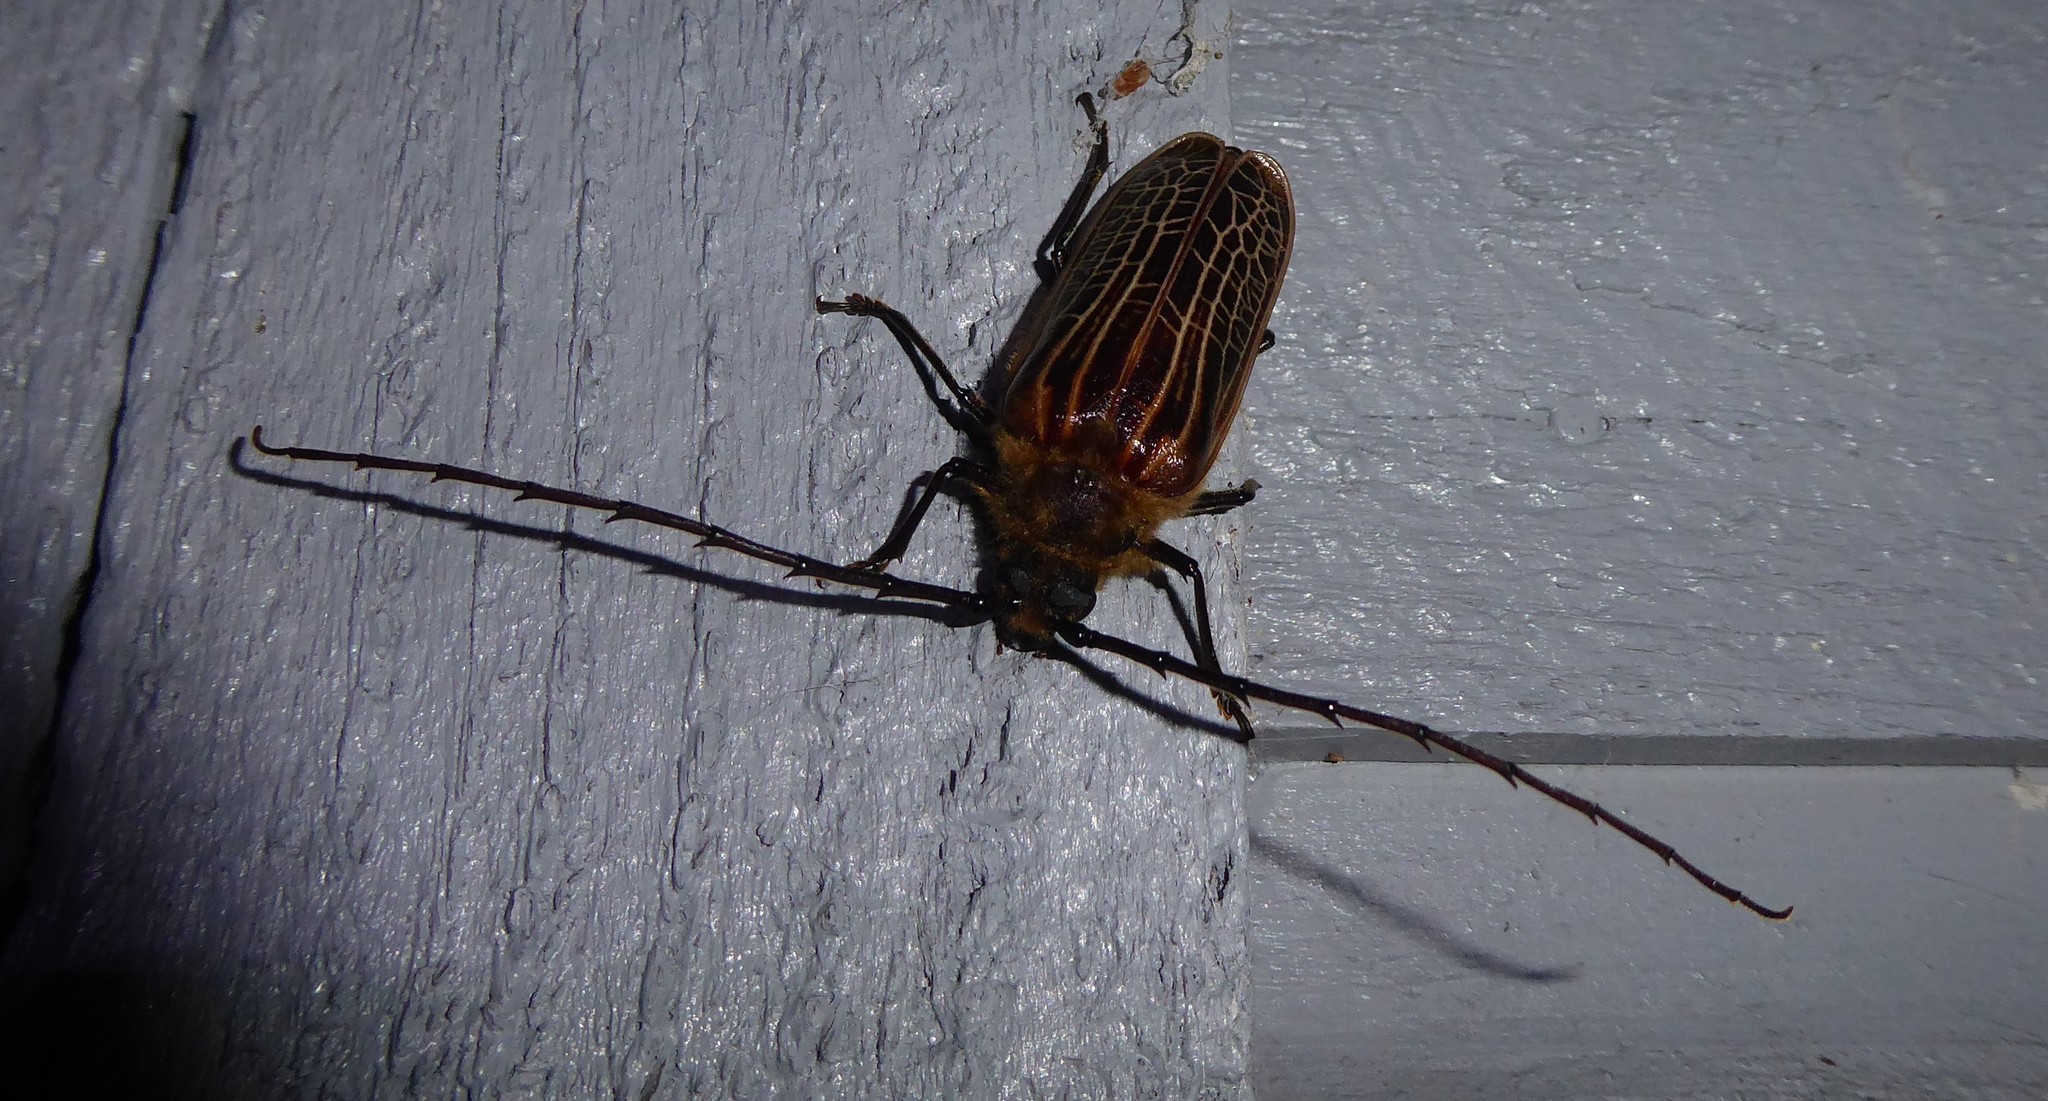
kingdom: Animalia
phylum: Arthropoda
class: Insecta
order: Coleoptera
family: Cerambycidae
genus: Prionoplus
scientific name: Prionoplus reticularis
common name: Huhu beetle
